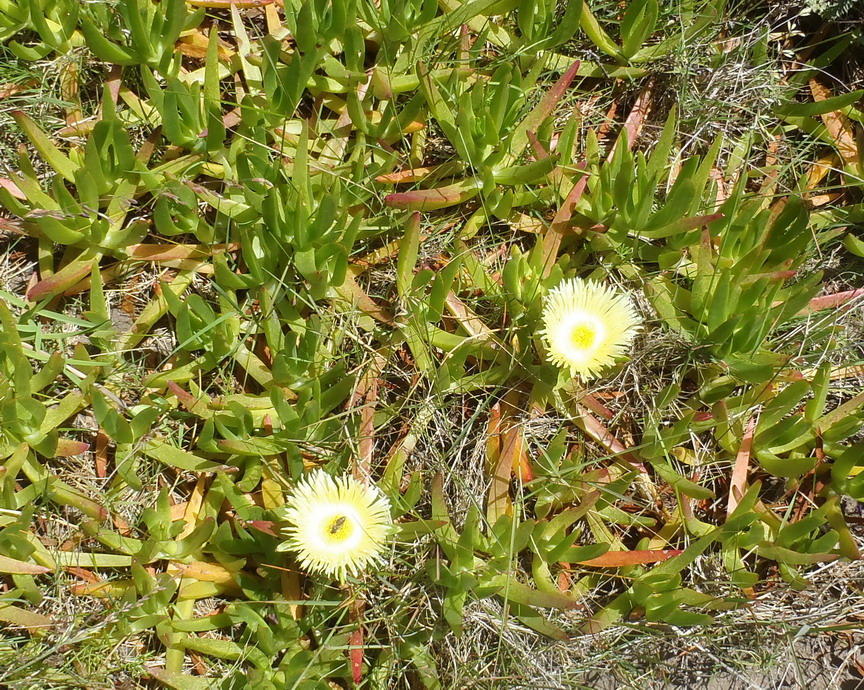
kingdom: Plantae
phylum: Tracheophyta
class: Magnoliopsida
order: Caryophyllales
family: Aizoaceae
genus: Carpobrotus
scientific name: Carpobrotus edulis
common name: Hottentot-fig
